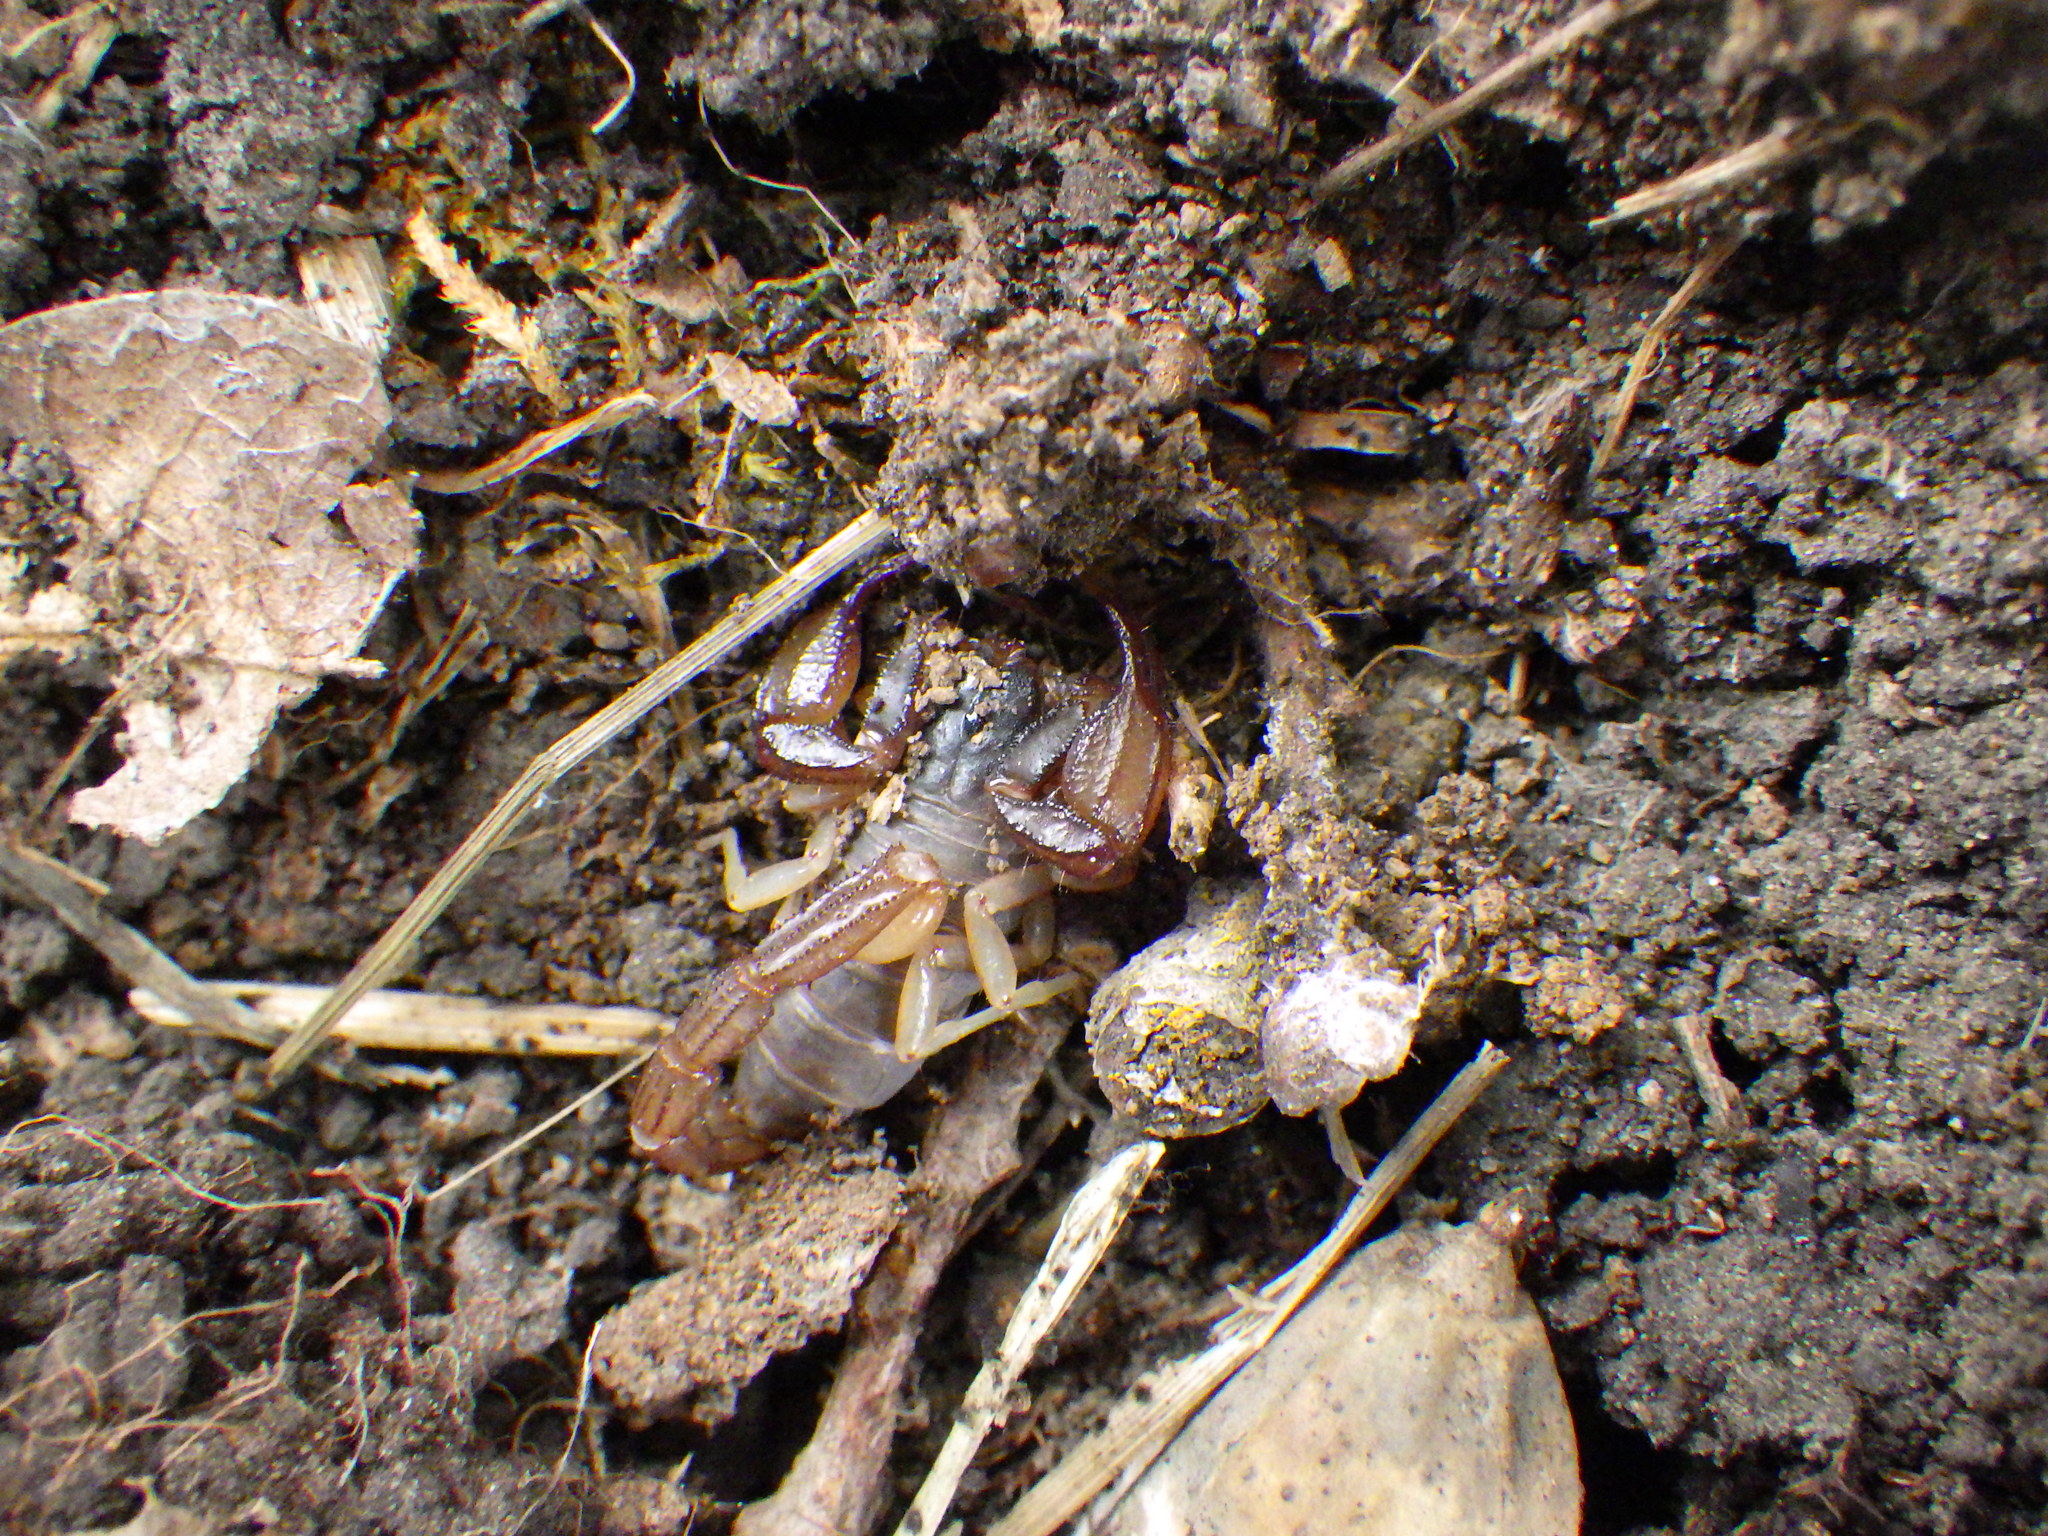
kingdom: Animalia
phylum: Arthropoda
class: Arachnida
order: Scorpiones
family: Chactidae
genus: Uroctonus
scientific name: Uroctonus mordax
